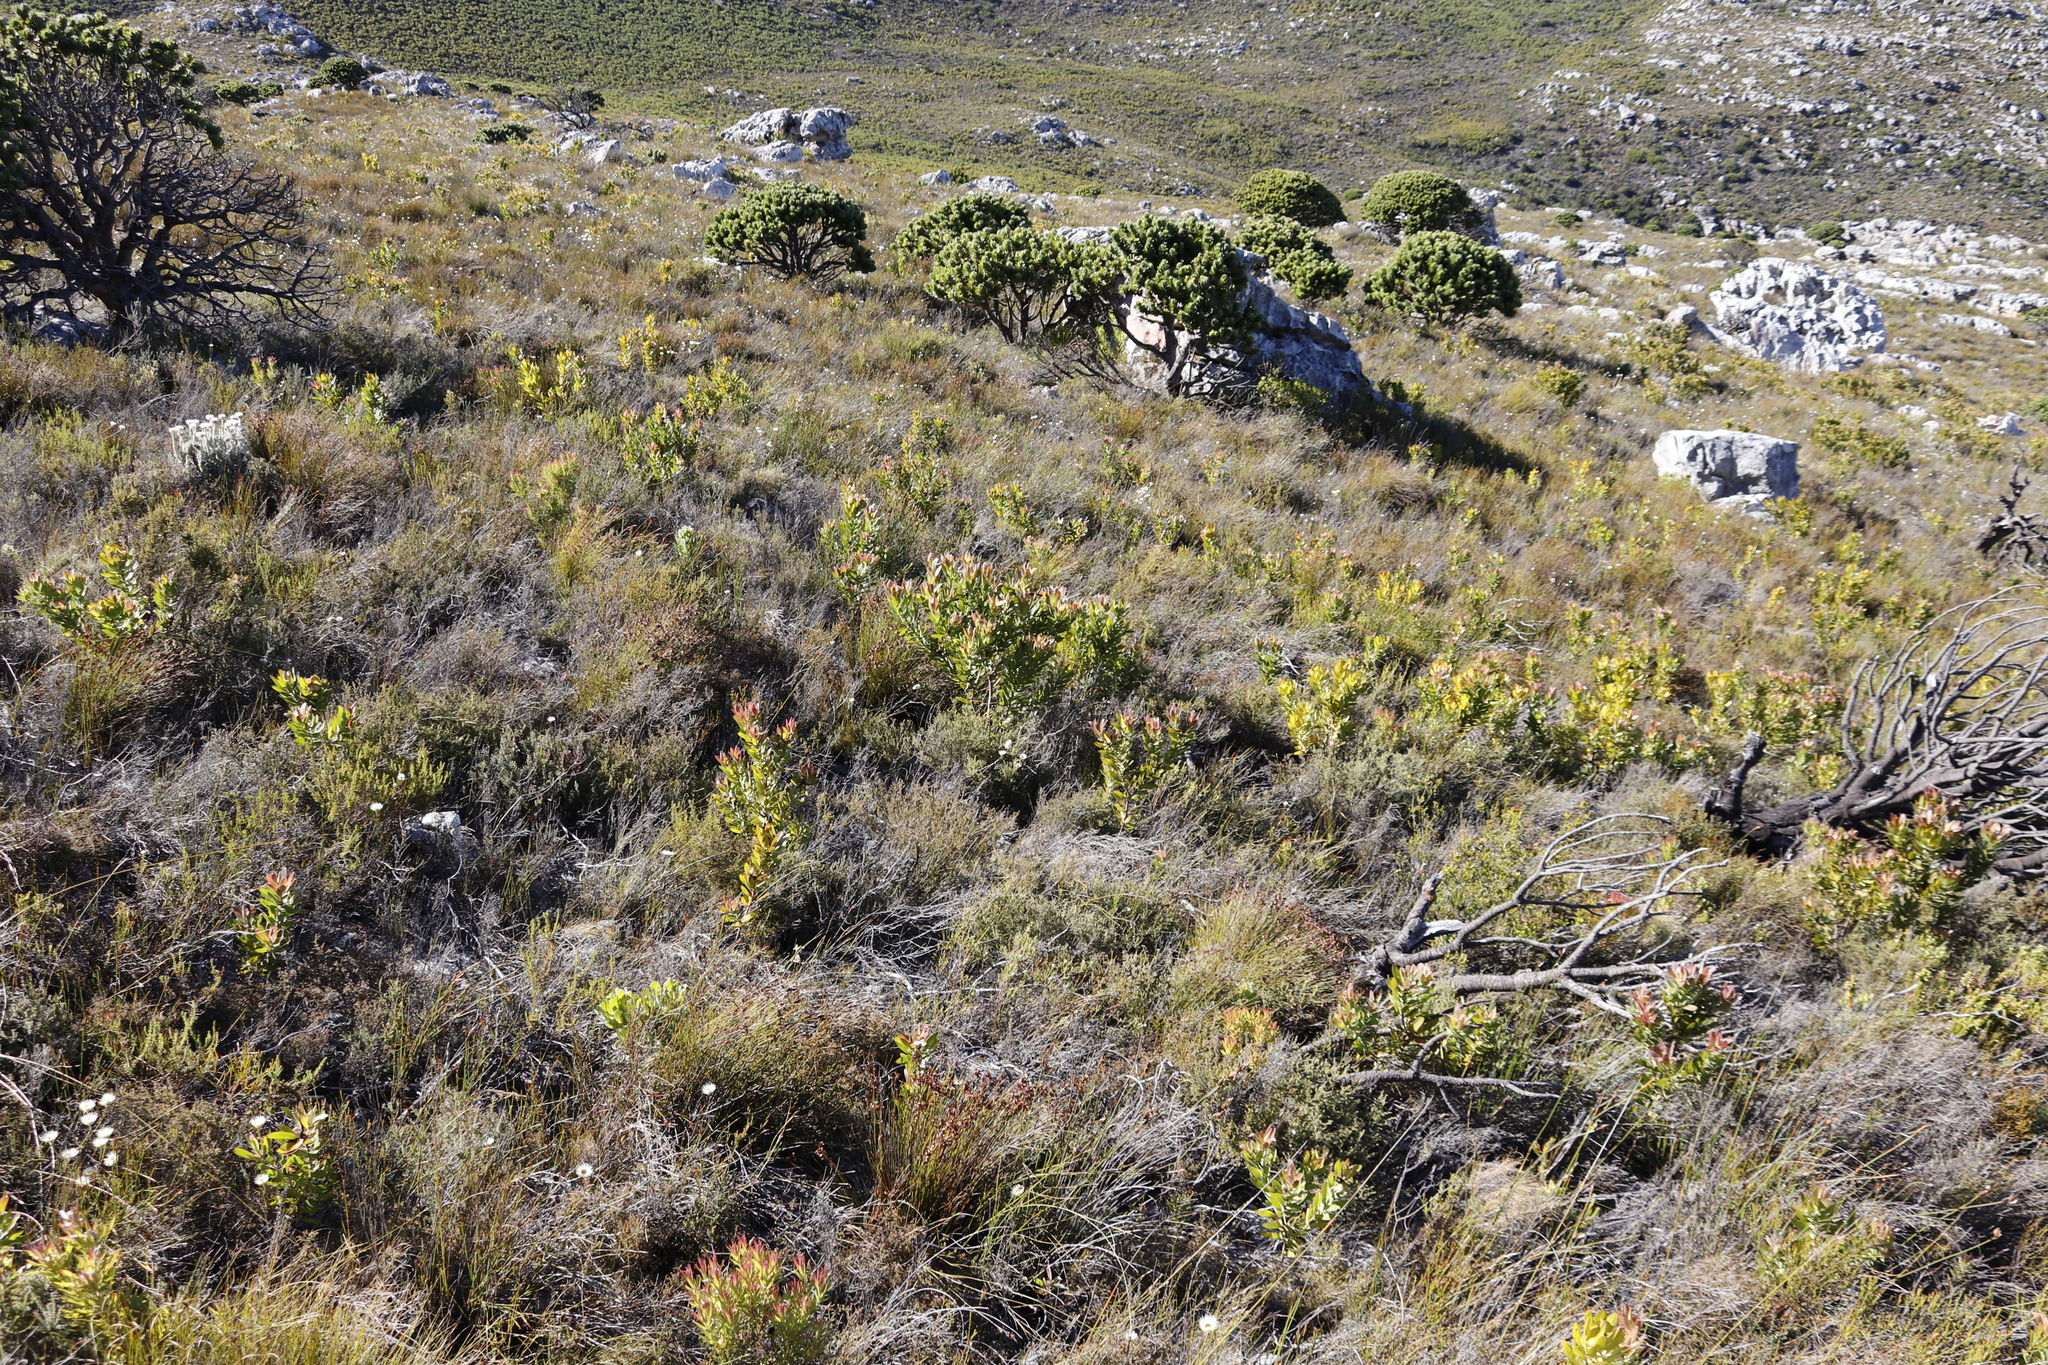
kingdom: Plantae
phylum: Tracheophyta
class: Magnoliopsida
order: Proteales
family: Proteaceae
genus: Leucadendron
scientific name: Leucadendron laureolum
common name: Golden sunshinebush
